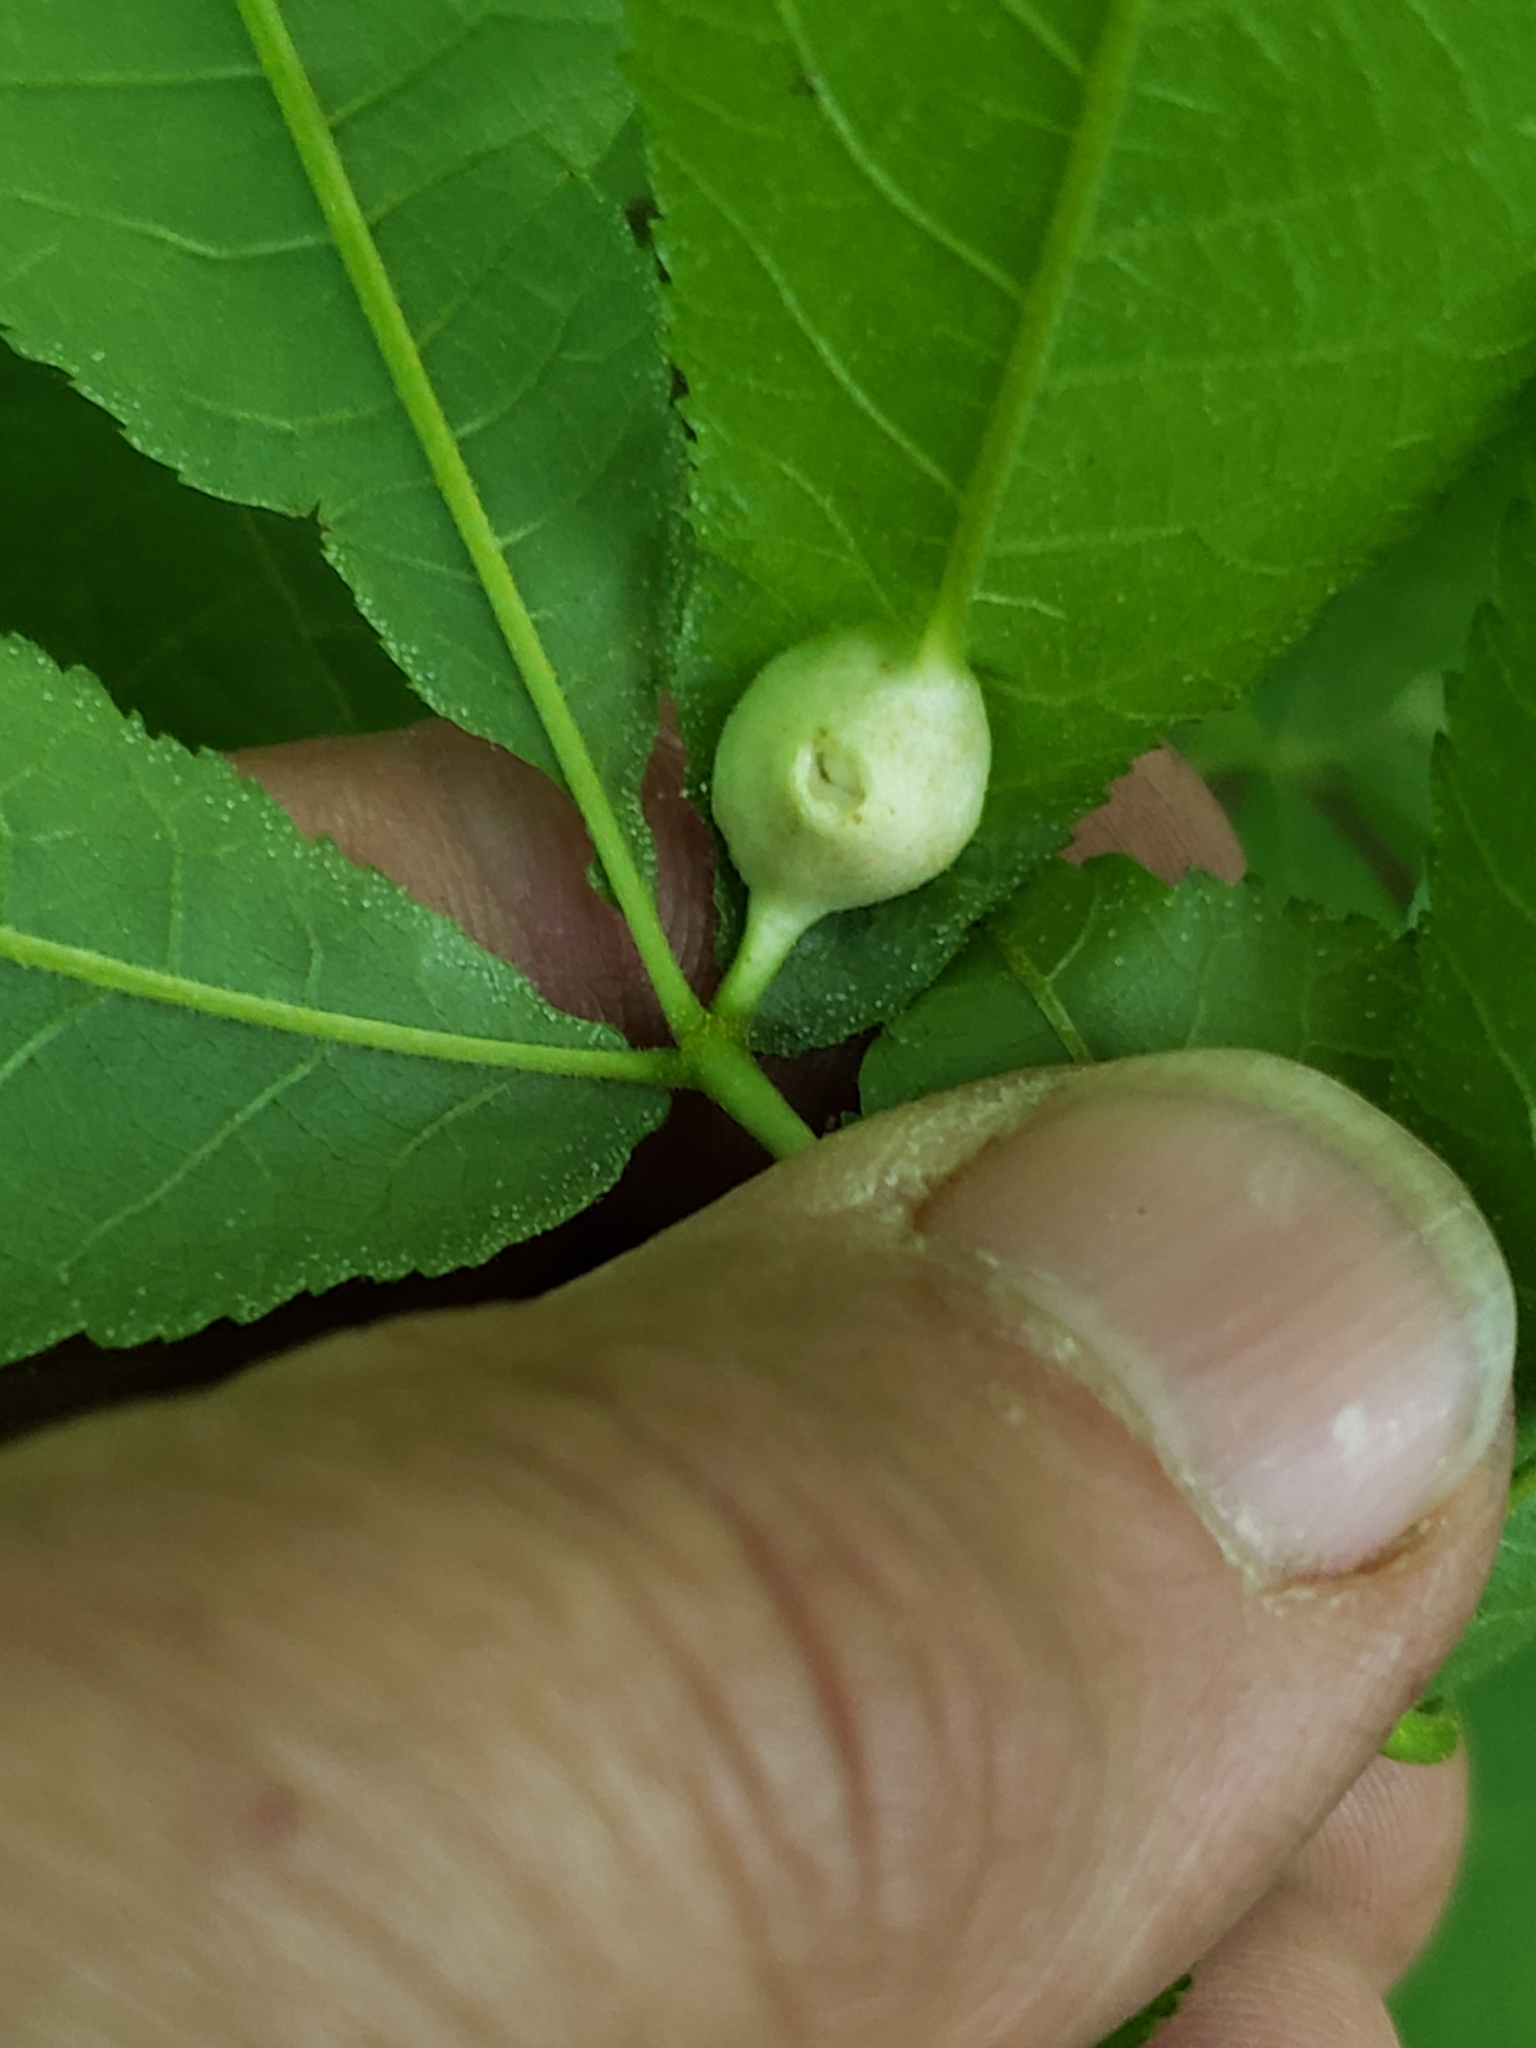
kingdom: Animalia
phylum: Arthropoda
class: Insecta
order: Hemiptera
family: Phylloxeridae
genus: Phylloxera
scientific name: Phylloxera
